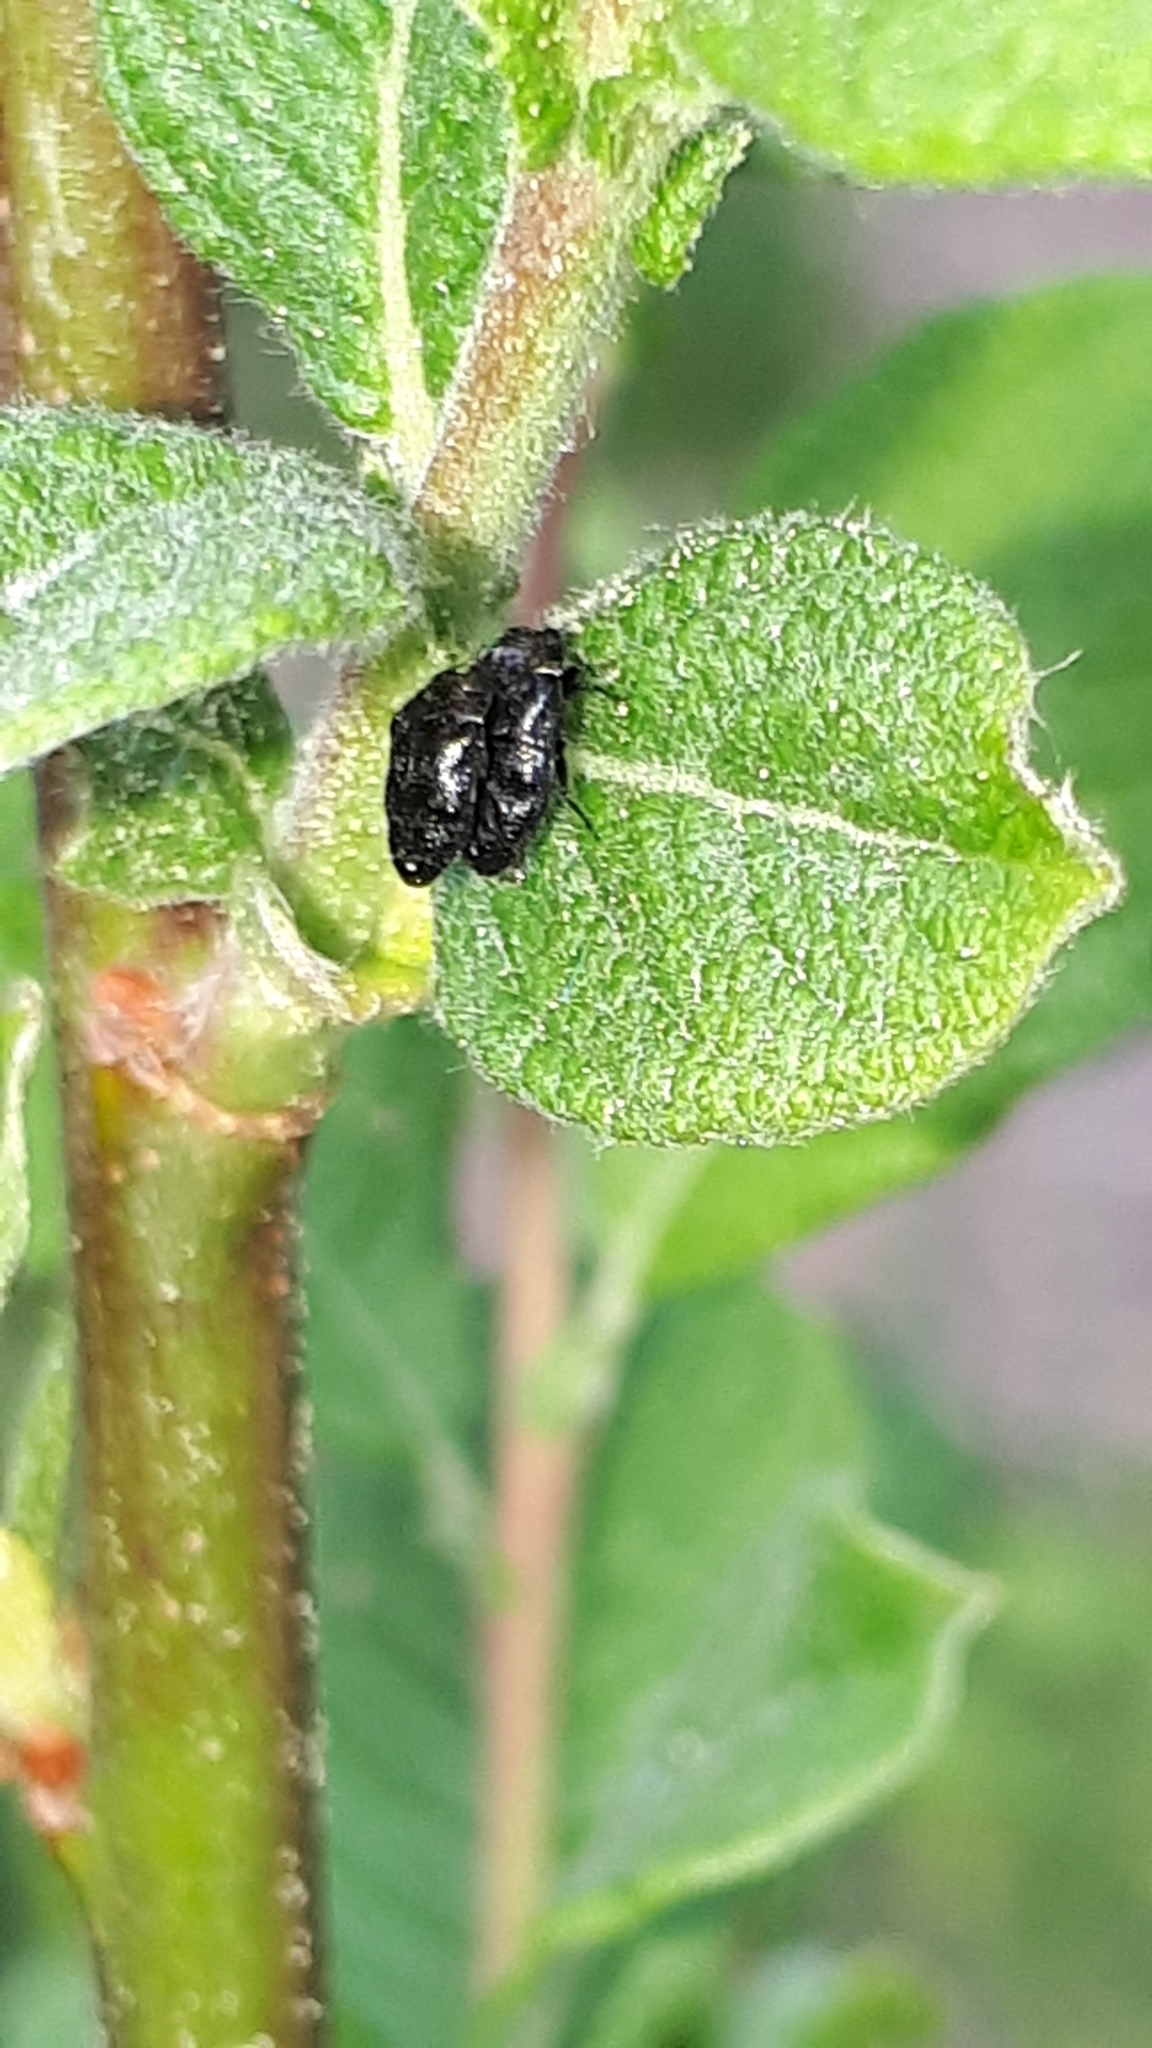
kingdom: Animalia
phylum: Arthropoda
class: Insecta
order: Coleoptera
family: Buprestidae
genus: Trachys
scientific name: Trachys minutus
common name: Metallic wood-boring beetle
